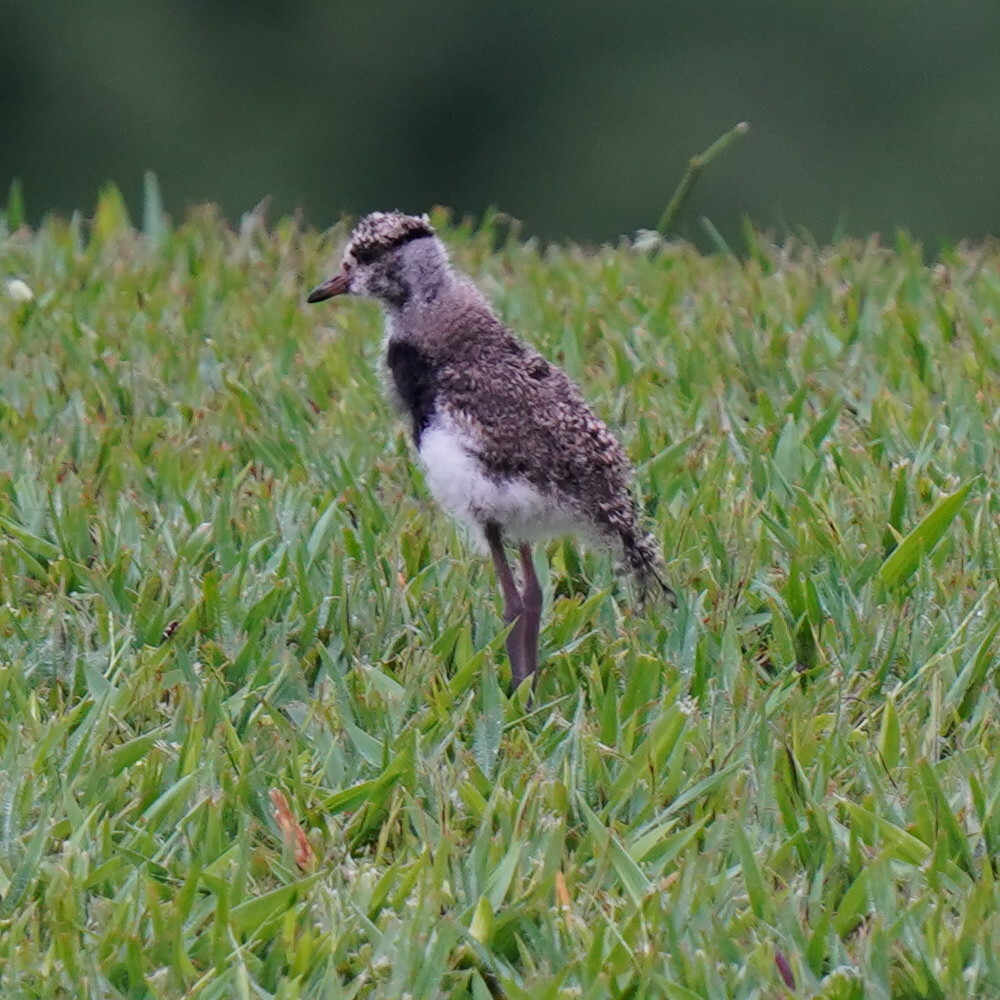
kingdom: Animalia
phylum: Chordata
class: Aves
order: Charadriiformes
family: Charadriidae
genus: Vanellus
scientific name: Vanellus chilensis
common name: Southern lapwing
